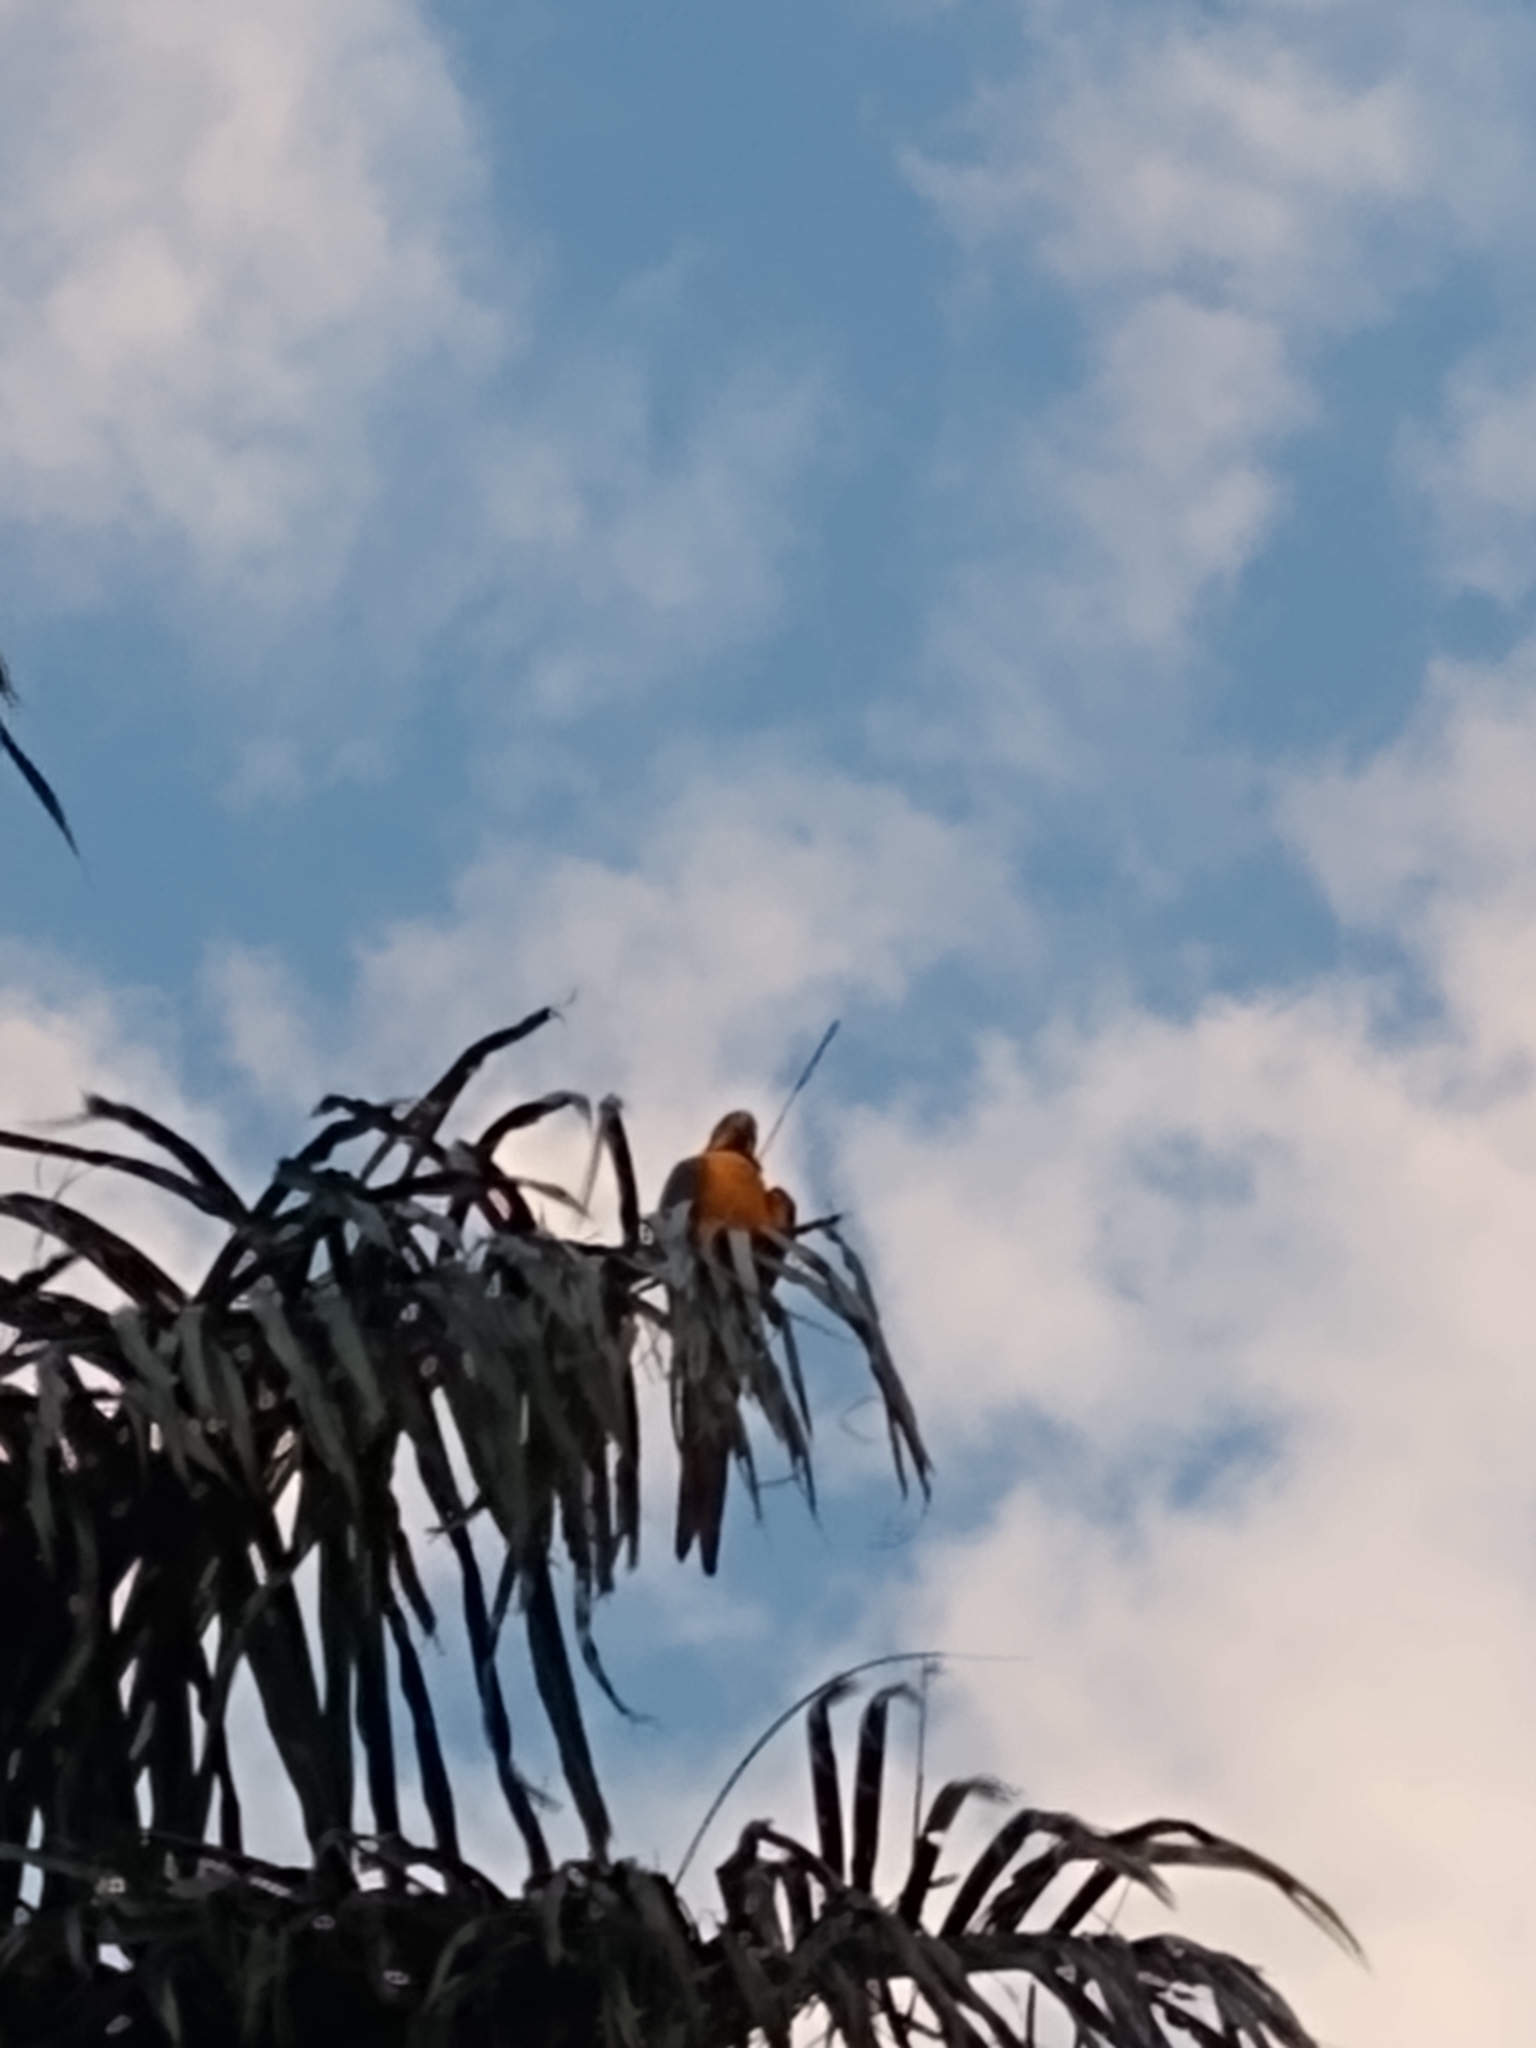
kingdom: Animalia
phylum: Chordata
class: Aves
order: Psittaciformes
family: Psittacidae
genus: Ara
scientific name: Ara ararauna
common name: Blue-and-yellow macaw
